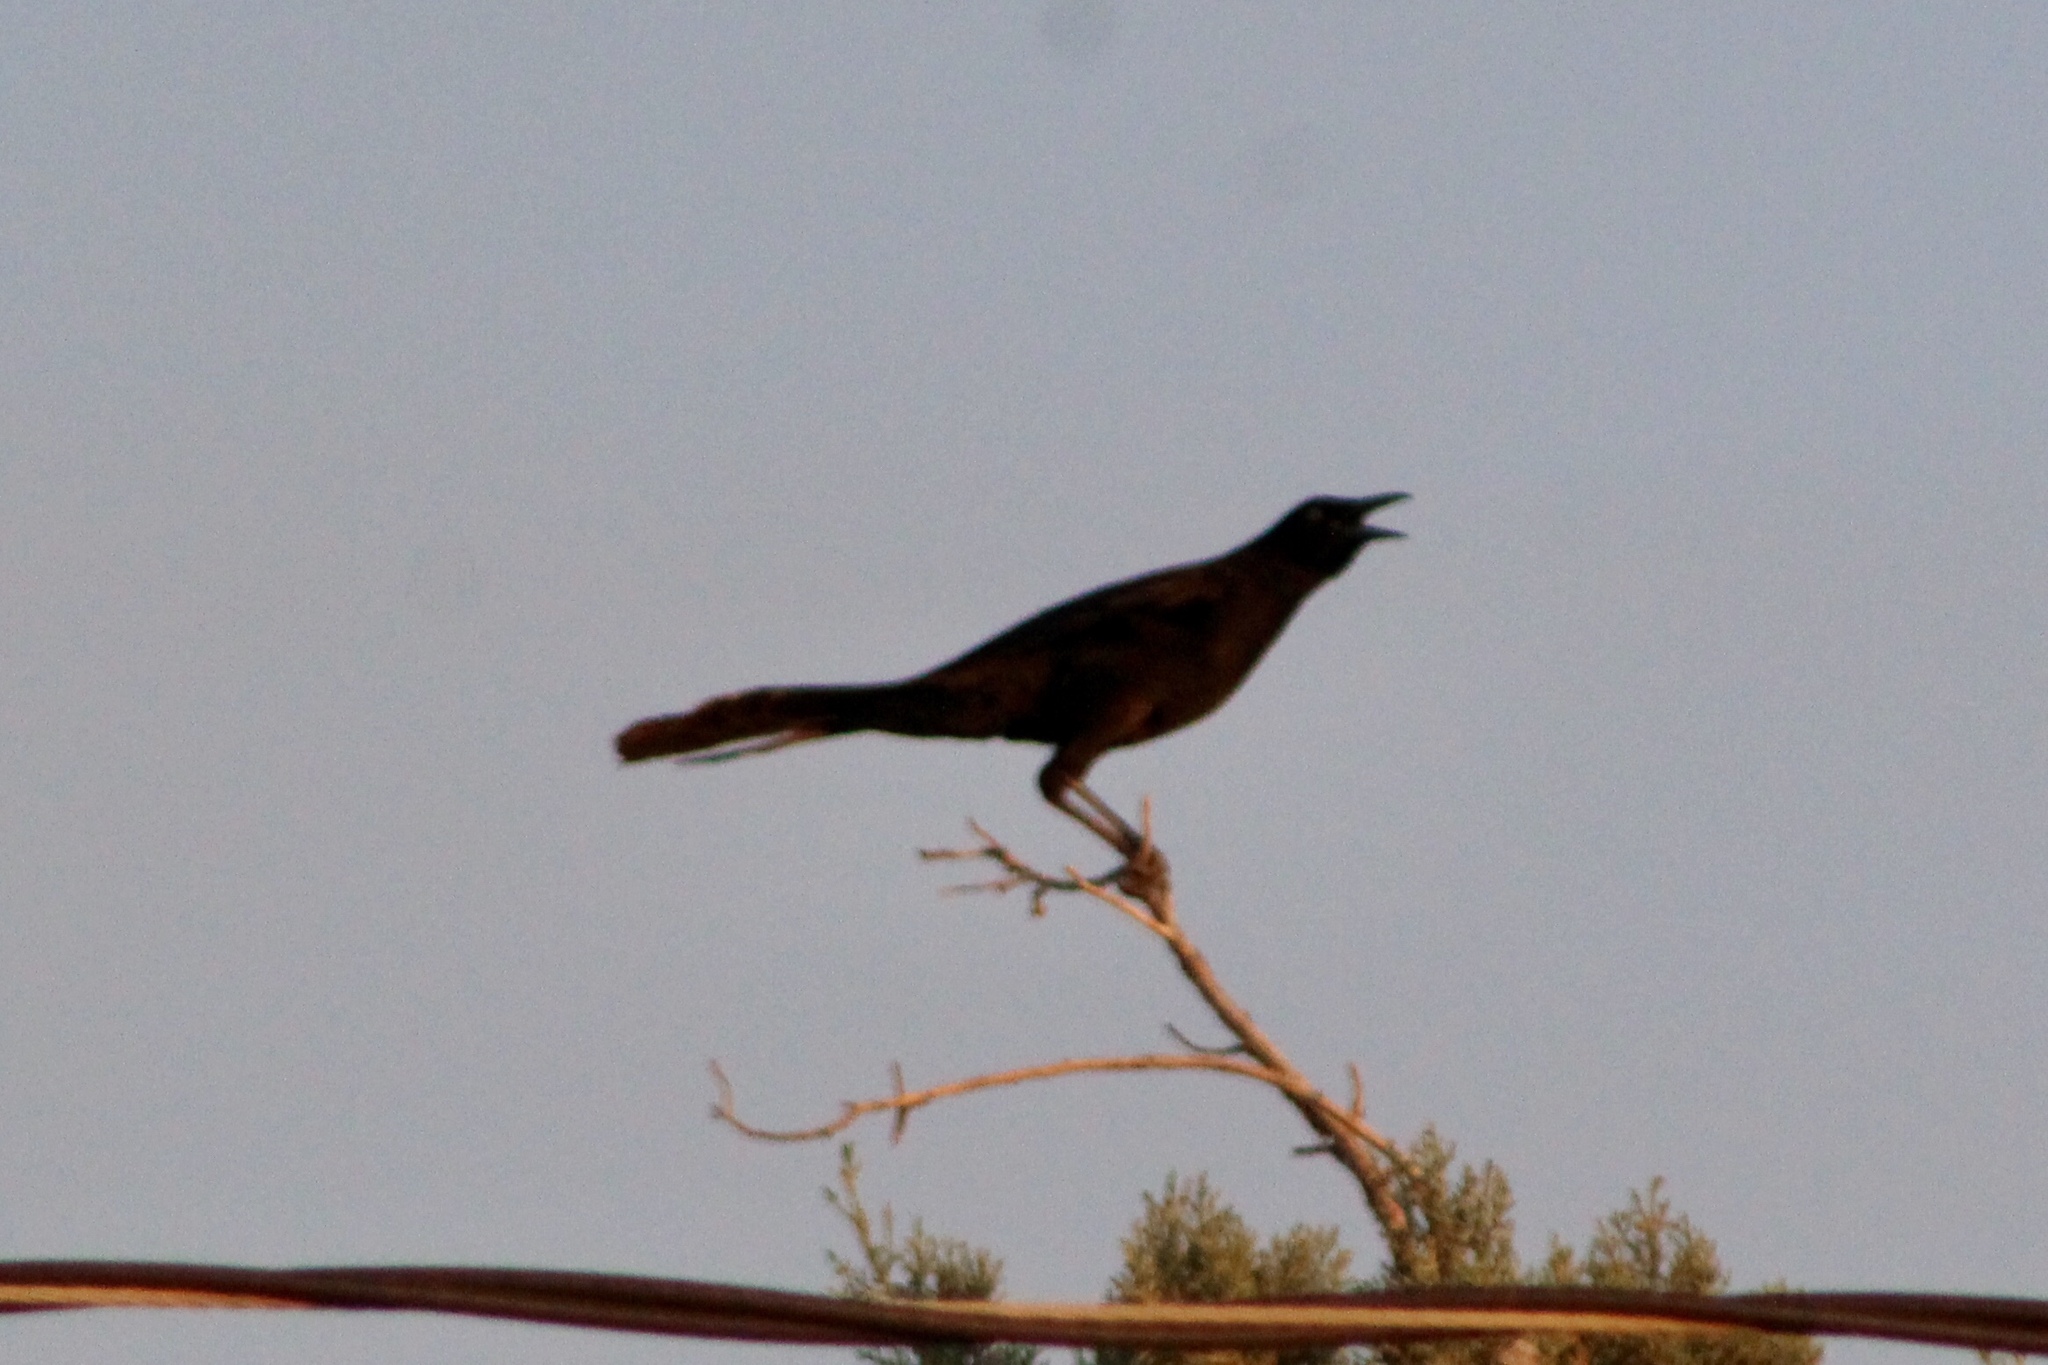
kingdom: Animalia
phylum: Chordata
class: Aves
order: Passeriformes
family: Icteridae
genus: Quiscalus
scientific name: Quiscalus mexicanus
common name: Great-tailed grackle
